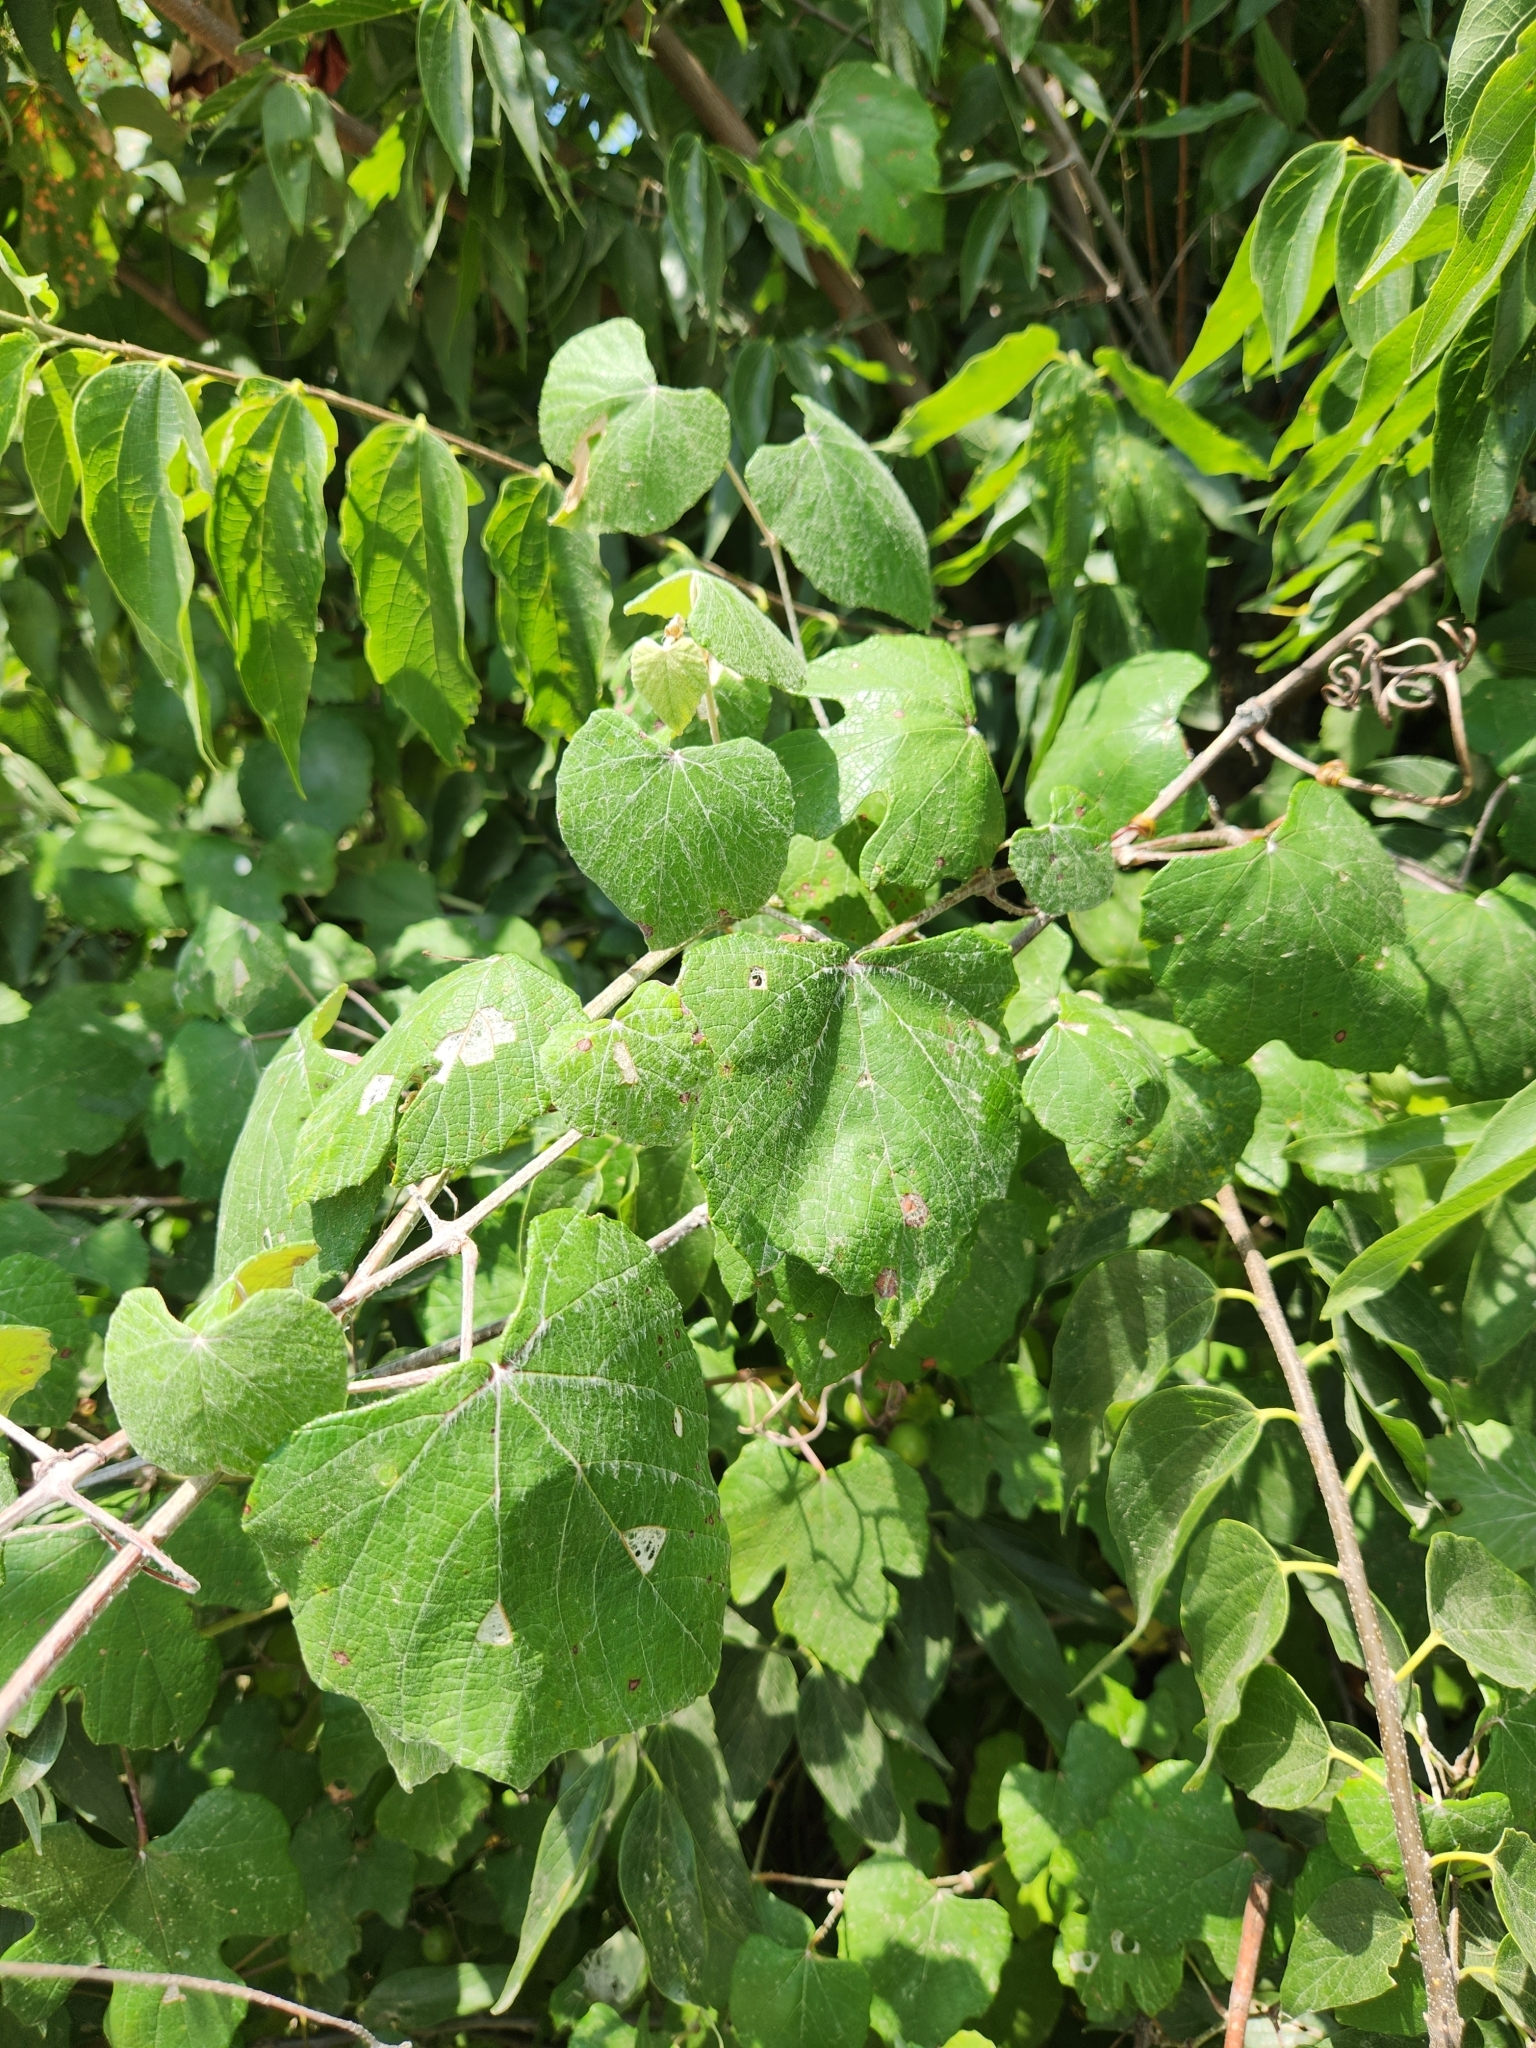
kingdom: Plantae
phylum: Tracheophyta
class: Magnoliopsida
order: Vitales
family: Vitaceae
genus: Vitis
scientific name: Vitis mustangensis
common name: Mustang grape
